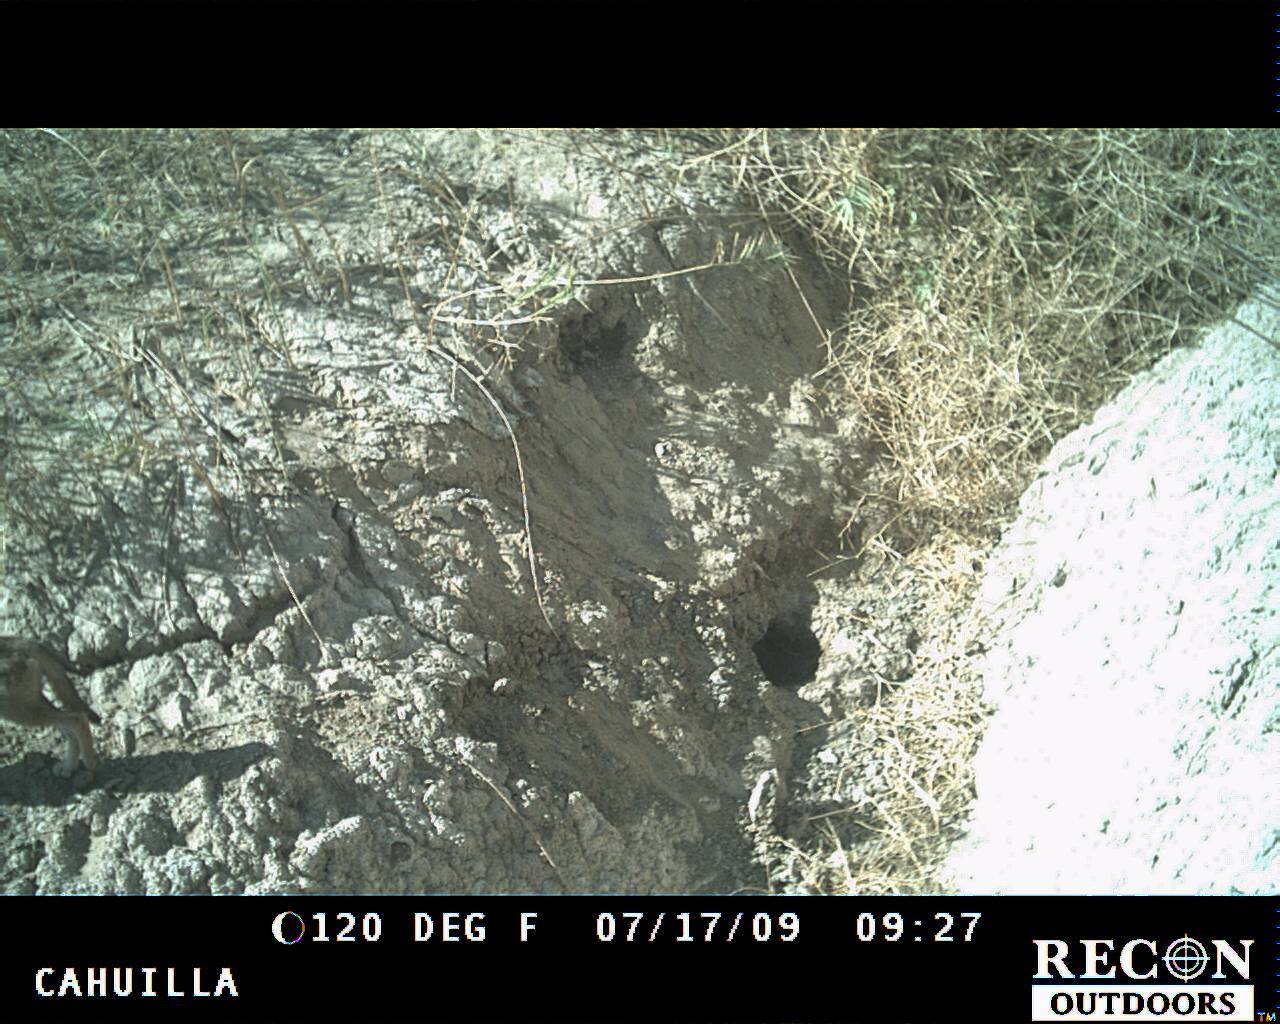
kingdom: Animalia
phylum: Chordata
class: Mammalia
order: Carnivora
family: Canidae
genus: Canis
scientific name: Canis latrans
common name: Coyote
